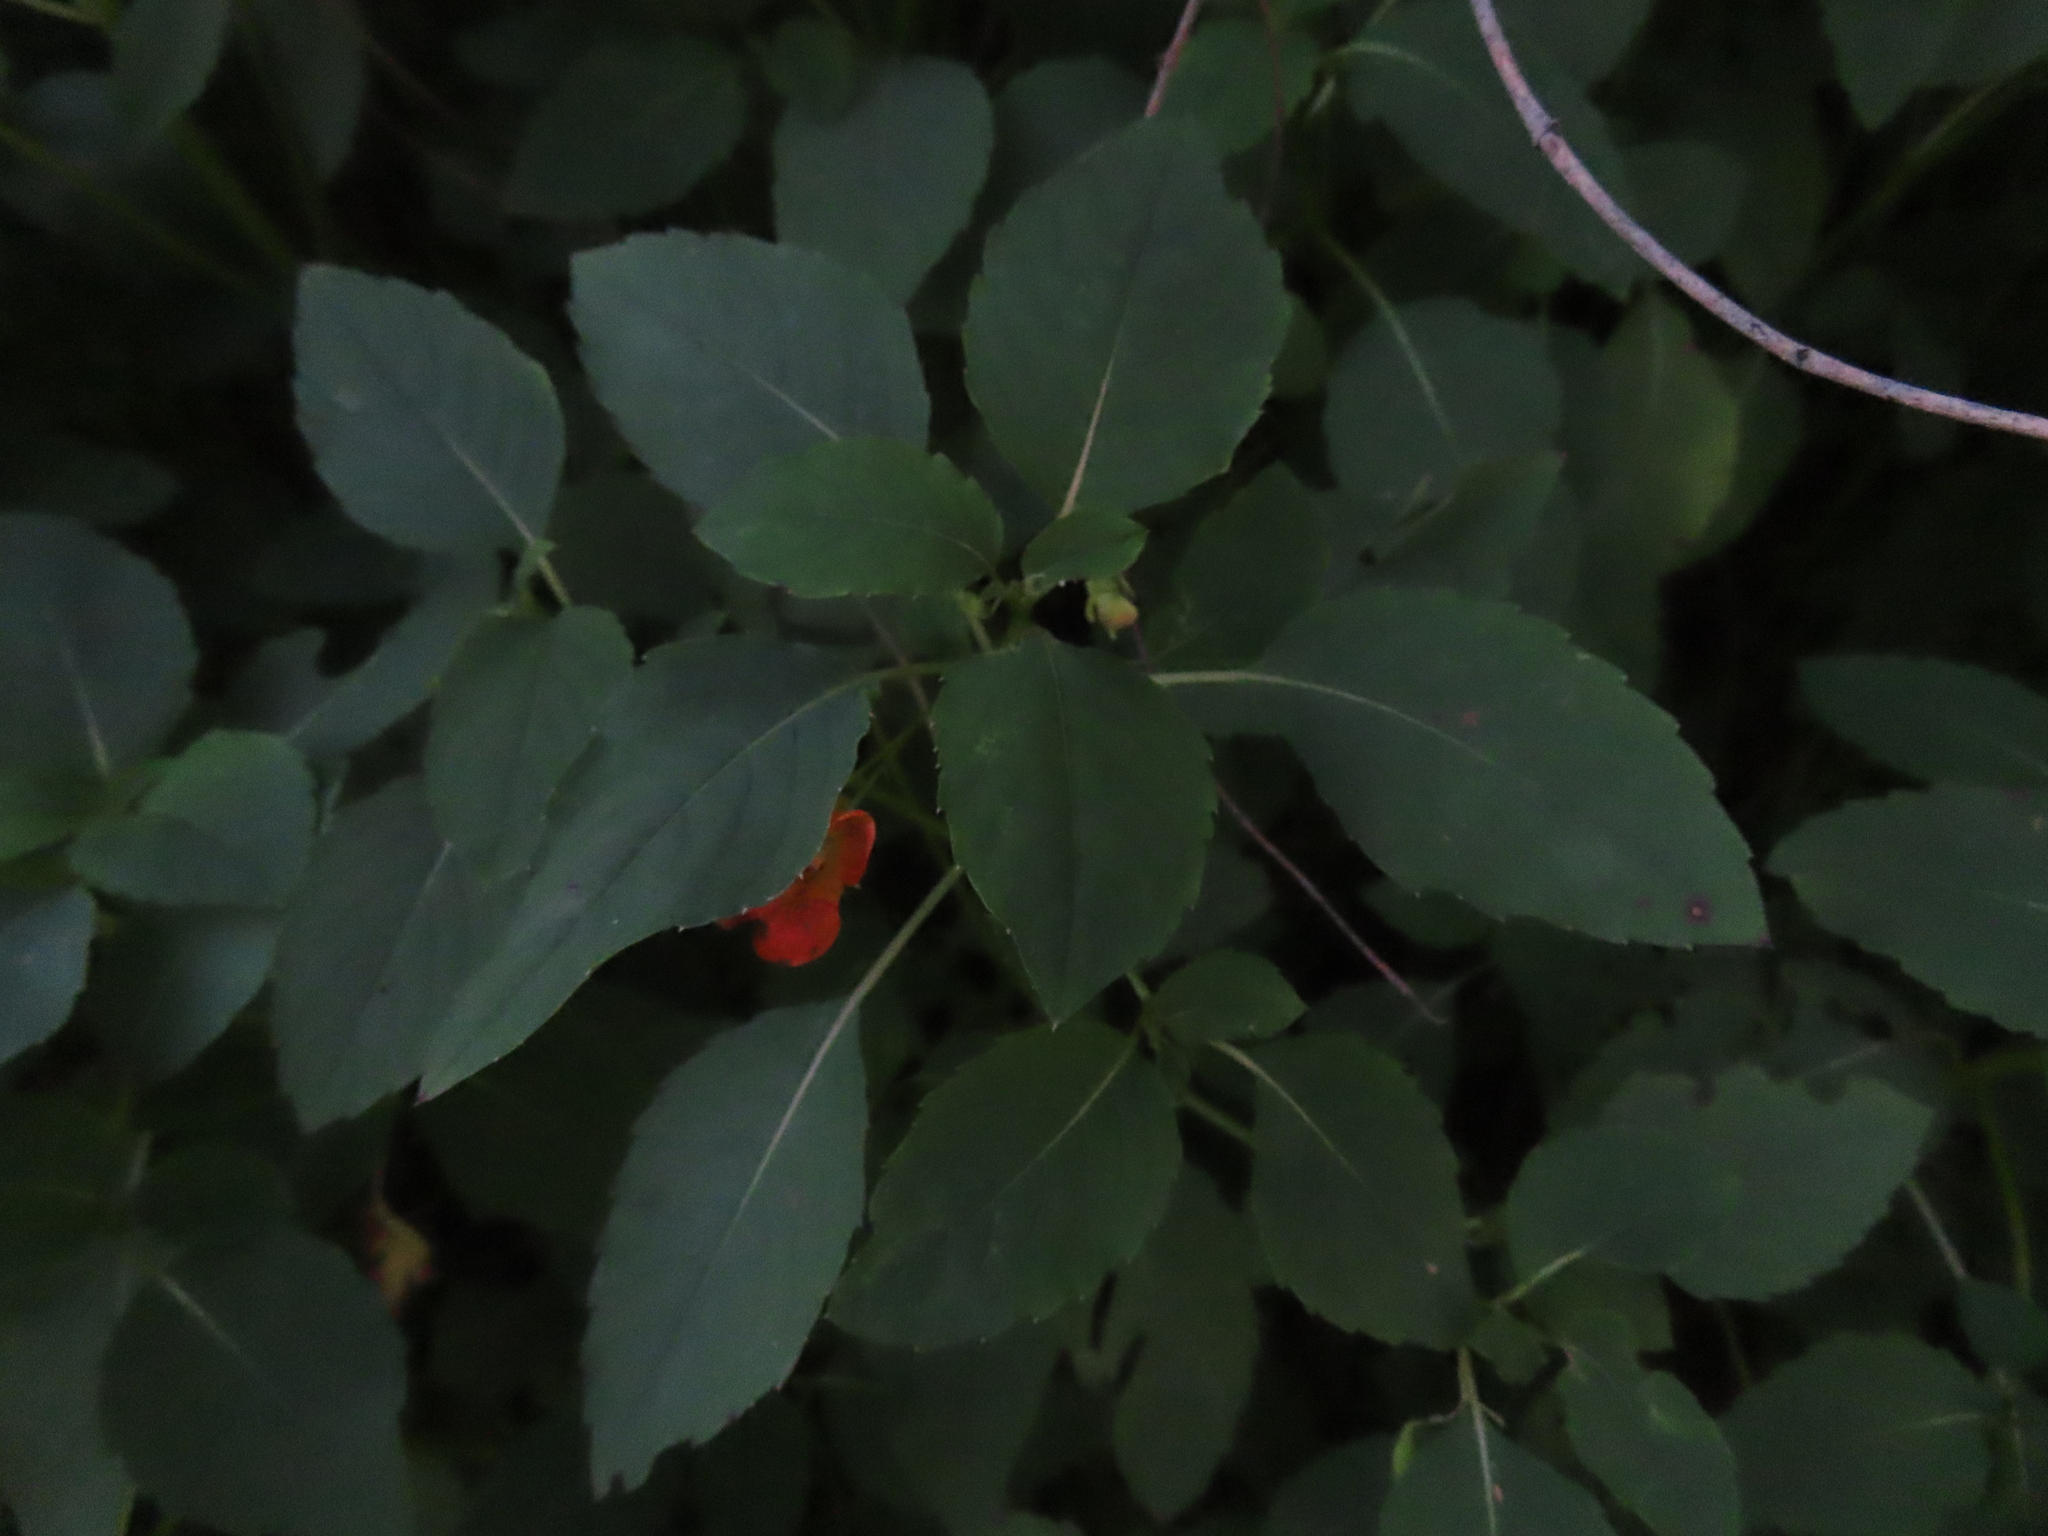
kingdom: Plantae
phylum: Tracheophyta
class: Magnoliopsida
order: Ericales
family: Balsaminaceae
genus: Impatiens
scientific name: Impatiens capensis
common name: Orange balsam
